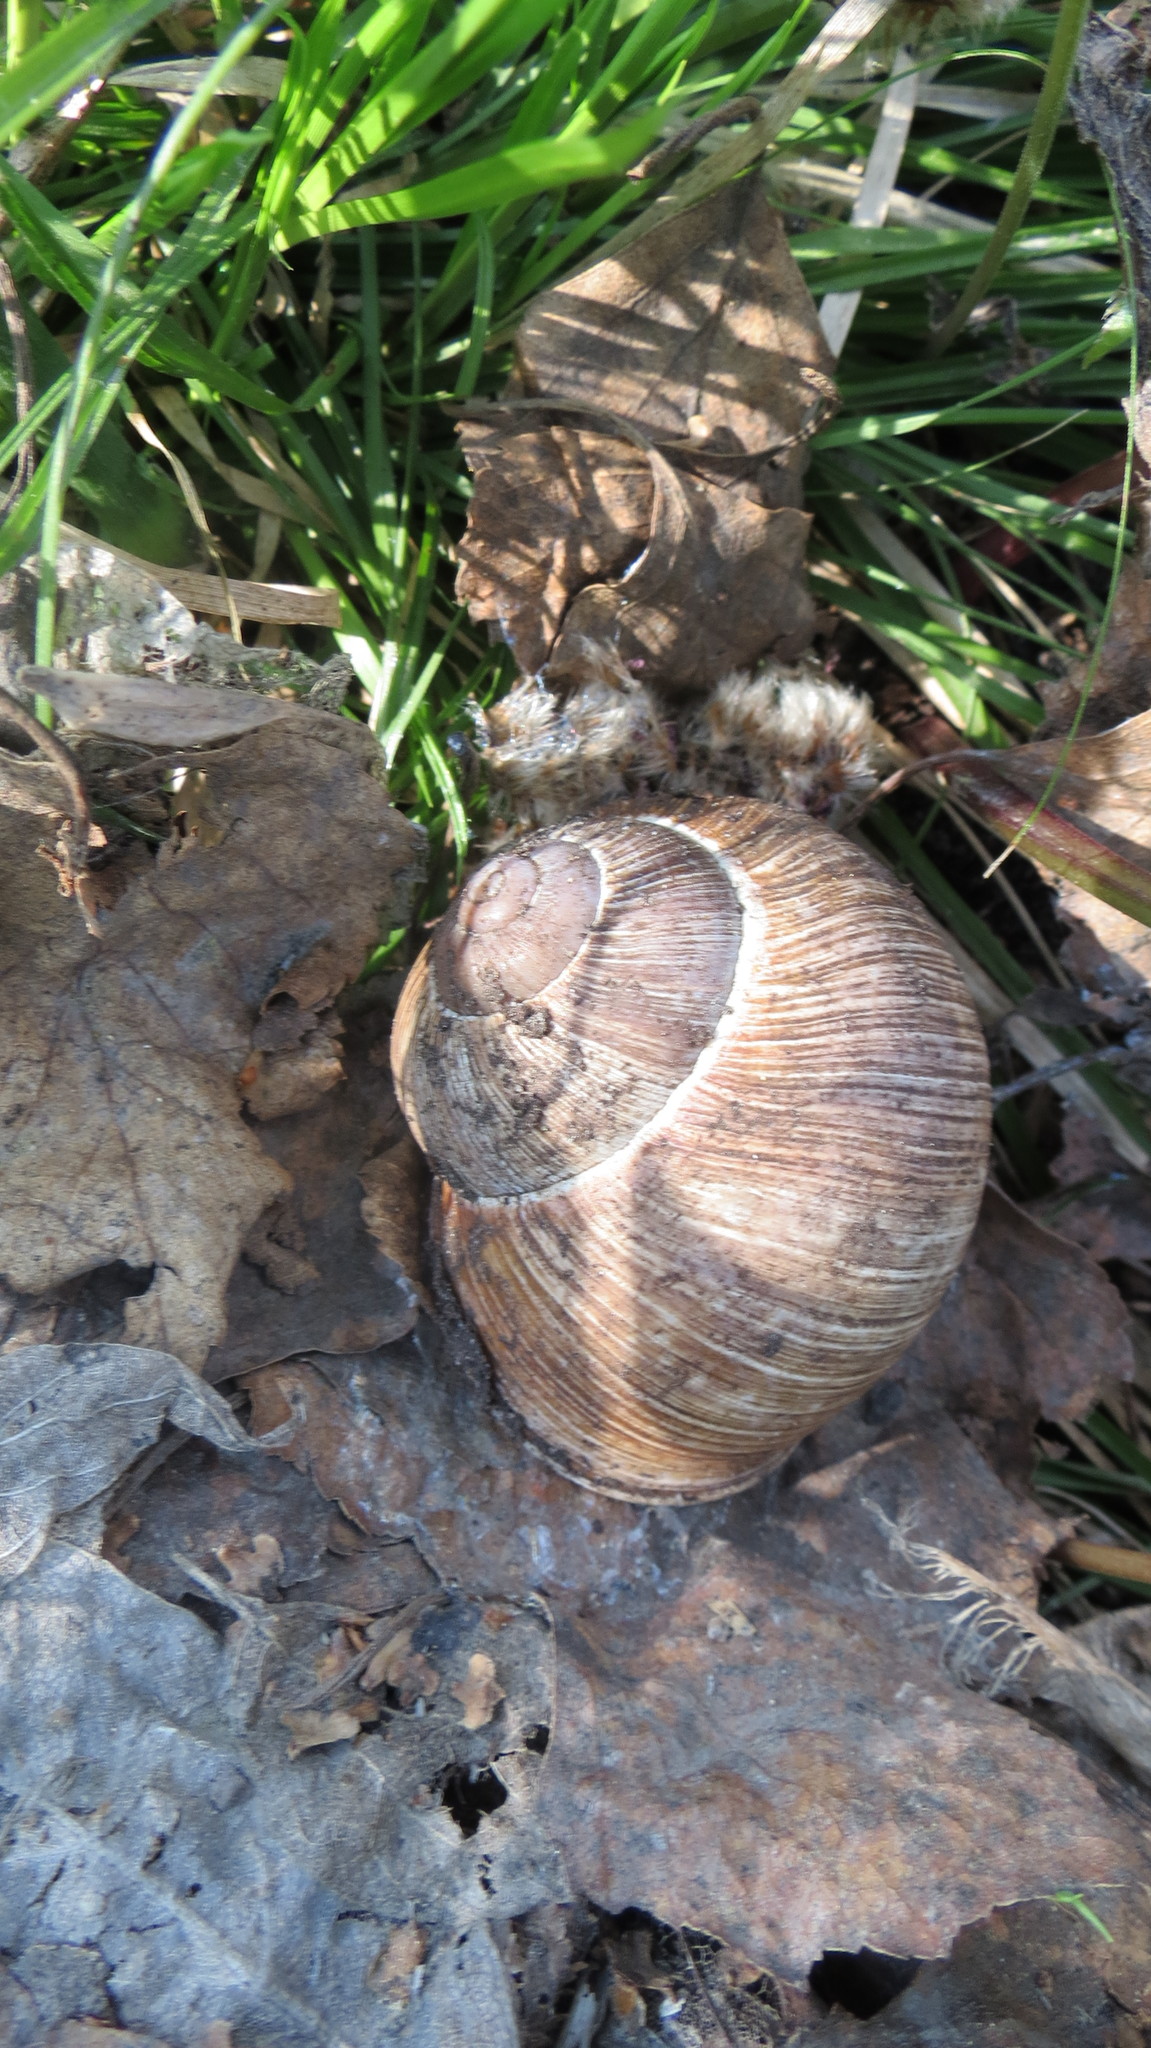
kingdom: Animalia
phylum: Mollusca
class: Gastropoda
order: Stylommatophora
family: Helicidae
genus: Helix
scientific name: Helix pomatia
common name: Roman snail
